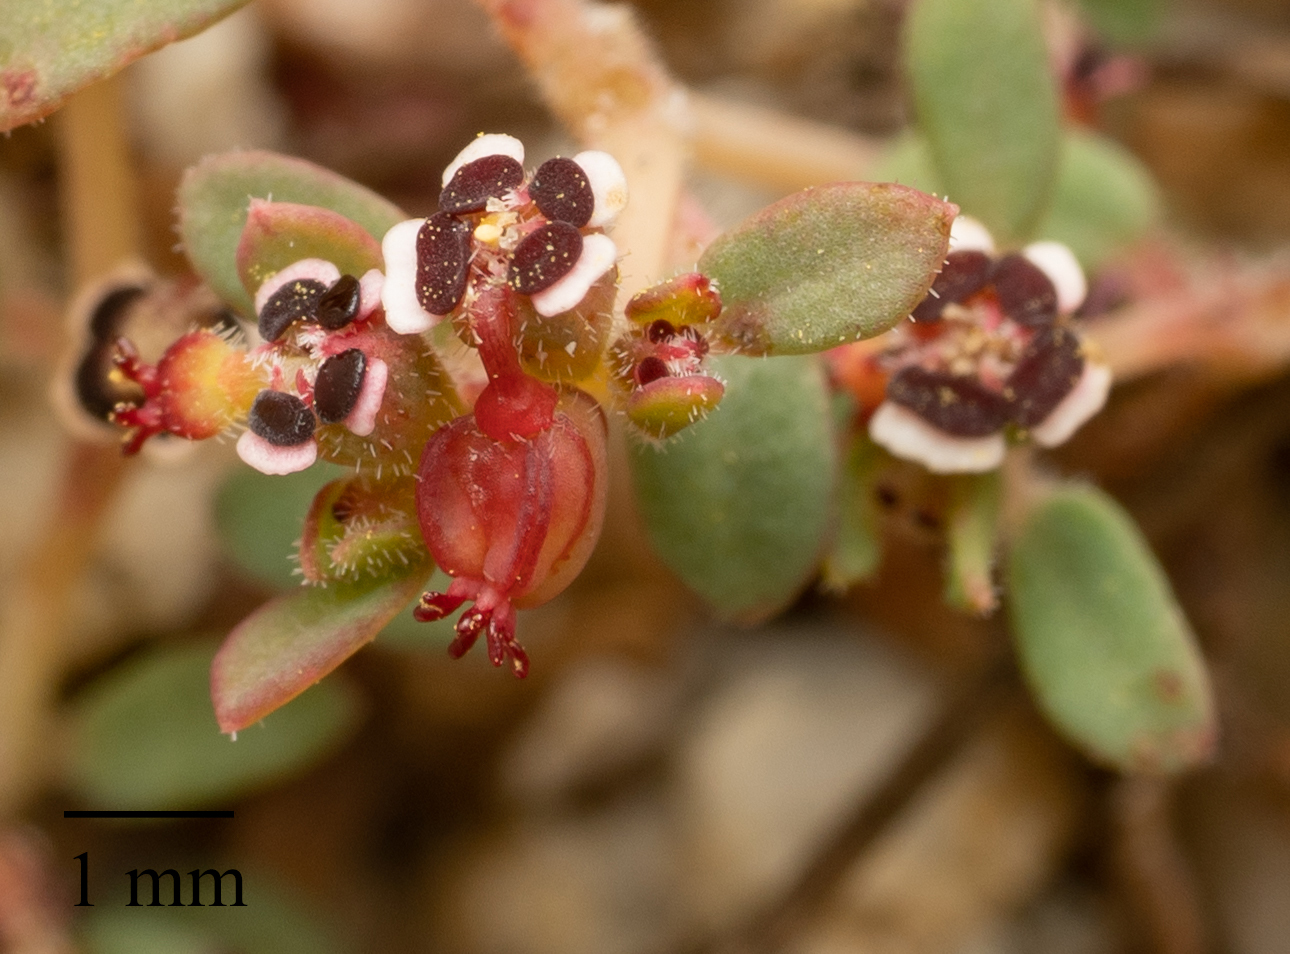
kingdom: Plantae
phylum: Tracheophyta
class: Magnoliopsida
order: Malpighiales
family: Euphorbiaceae
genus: Euphorbia
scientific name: Euphorbia polycarpa
